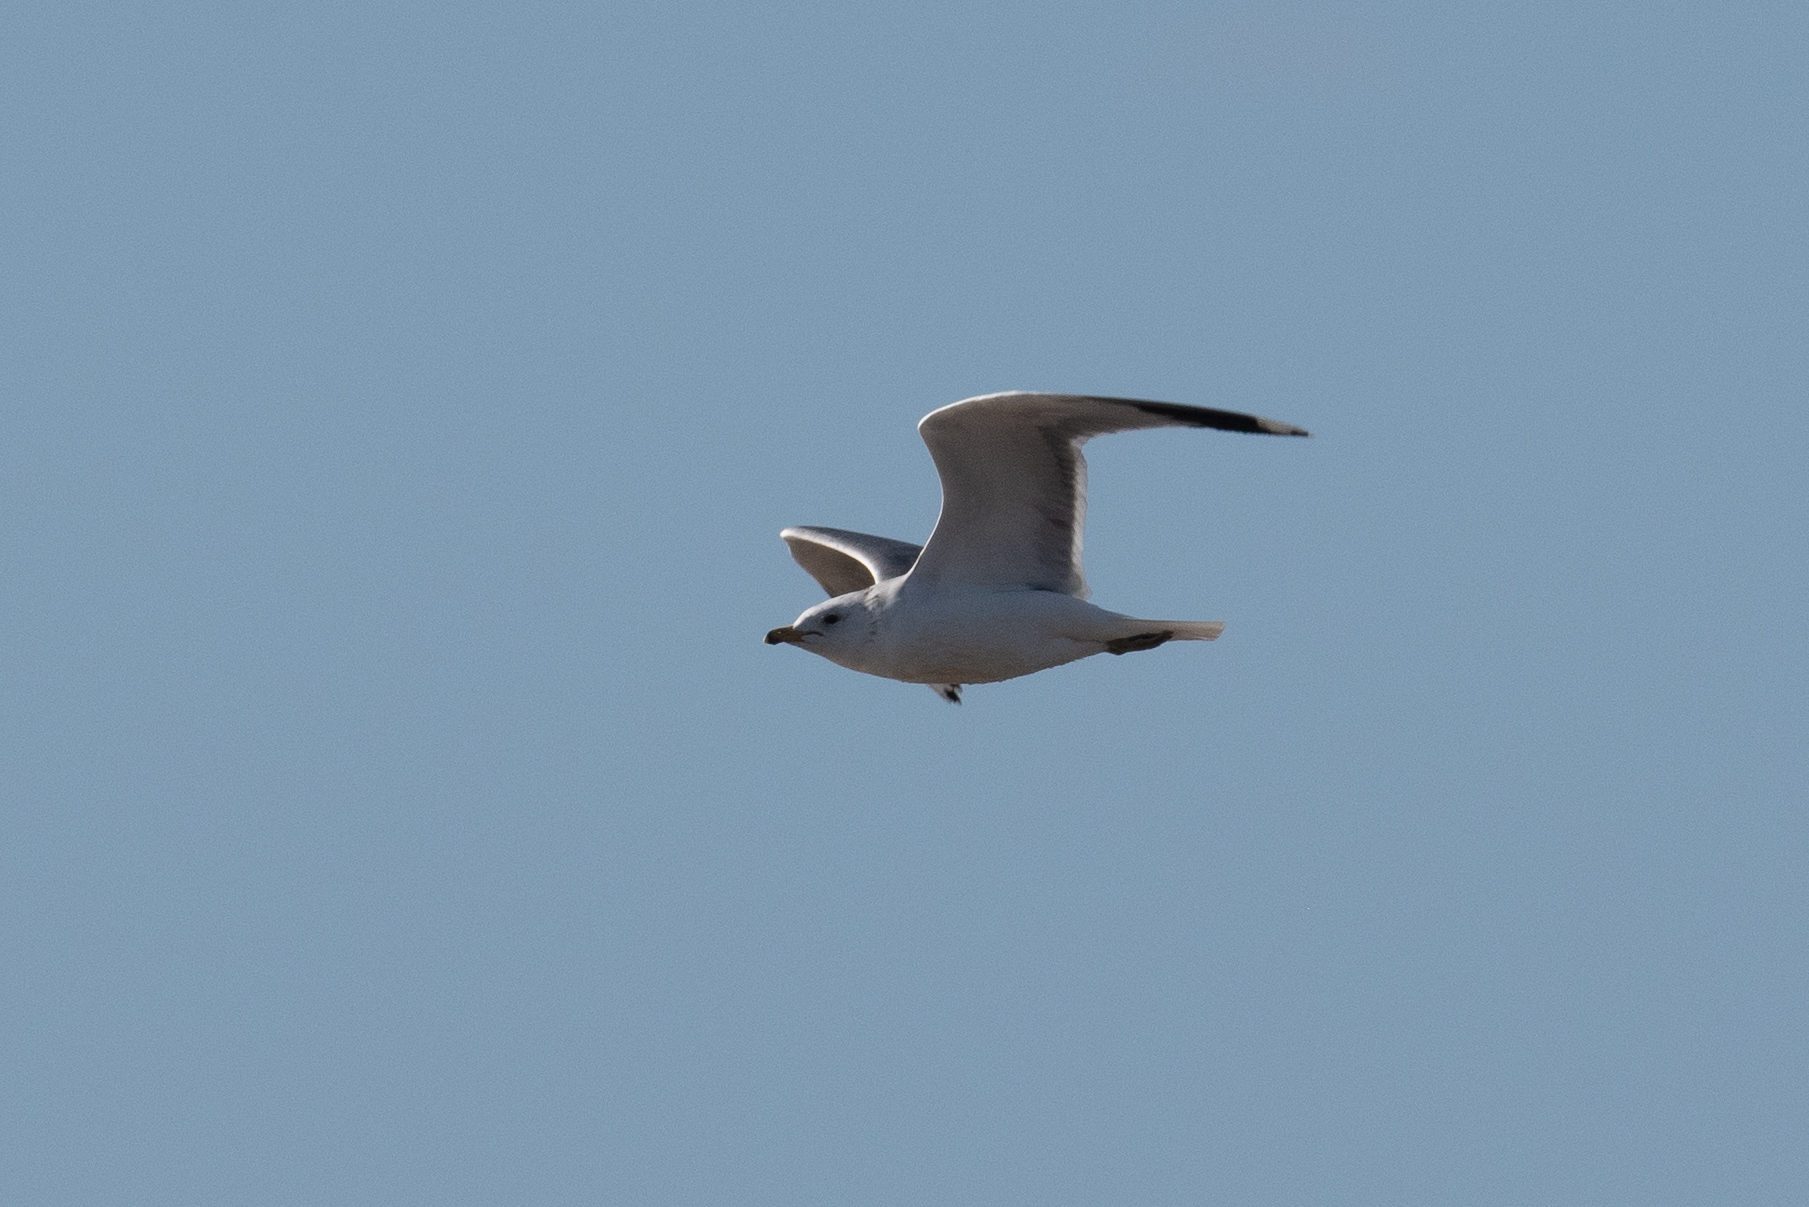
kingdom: Animalia
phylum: Chordata
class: Aves
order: Charadriiformes
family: Laridae
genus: Larus
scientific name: Larus delawarensis
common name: Ring-billed gull
